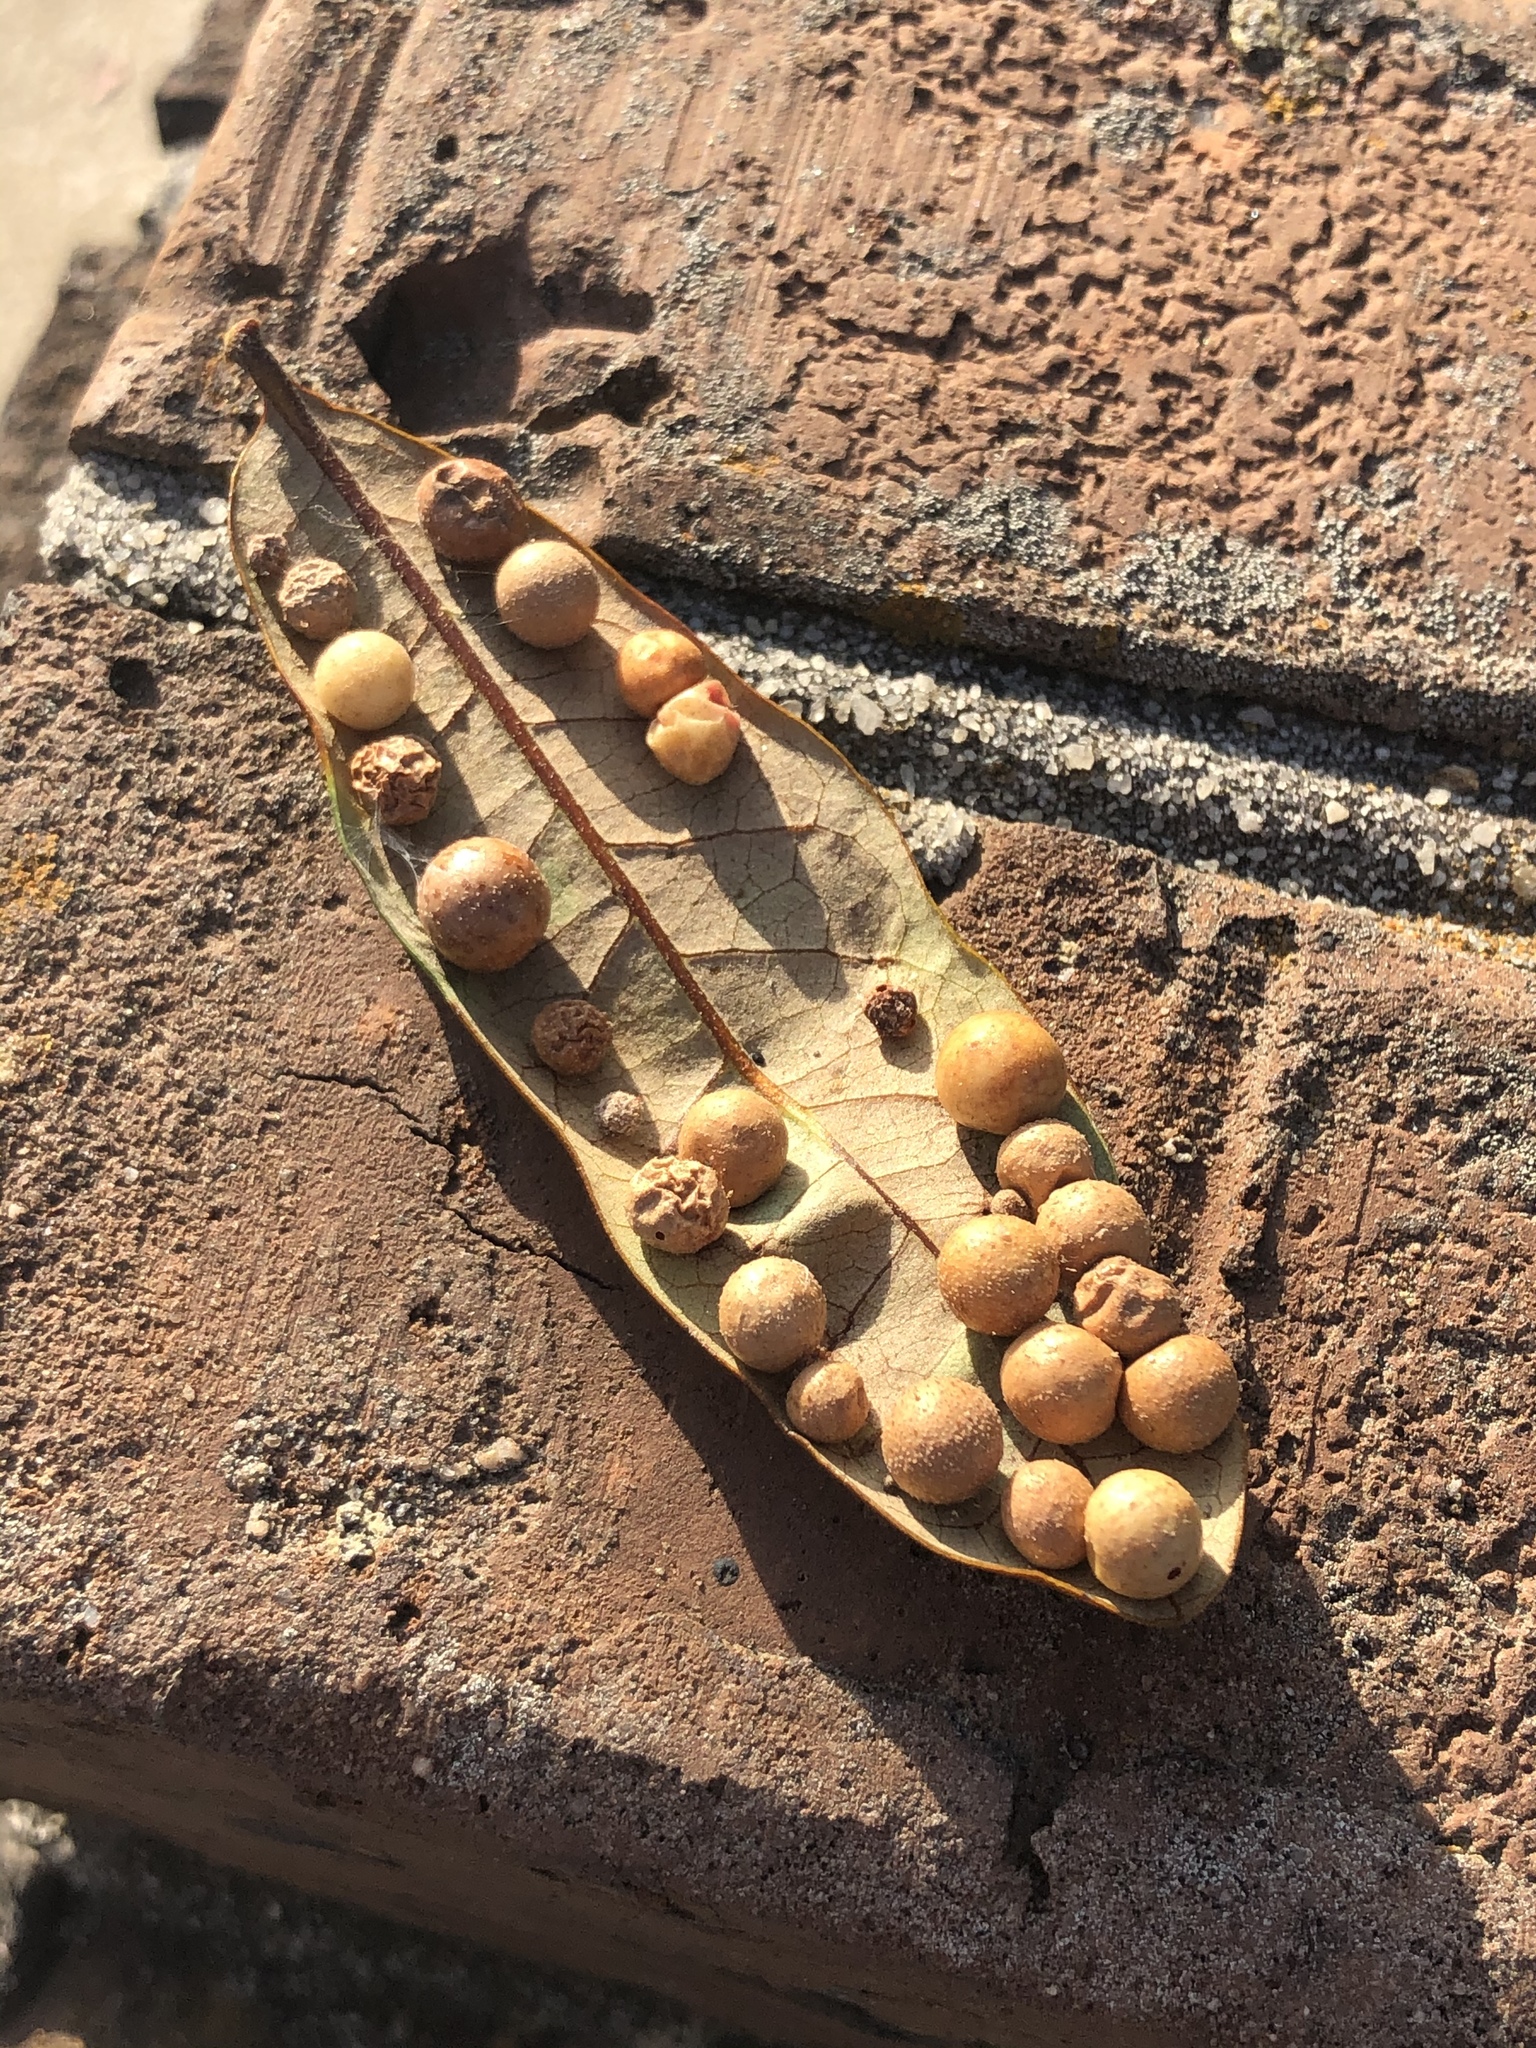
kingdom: Animalia
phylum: Arthropoda
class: Insecta
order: Hymenoptera
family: Cynipidae
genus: Belonocnema
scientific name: Belonocnema treatae
